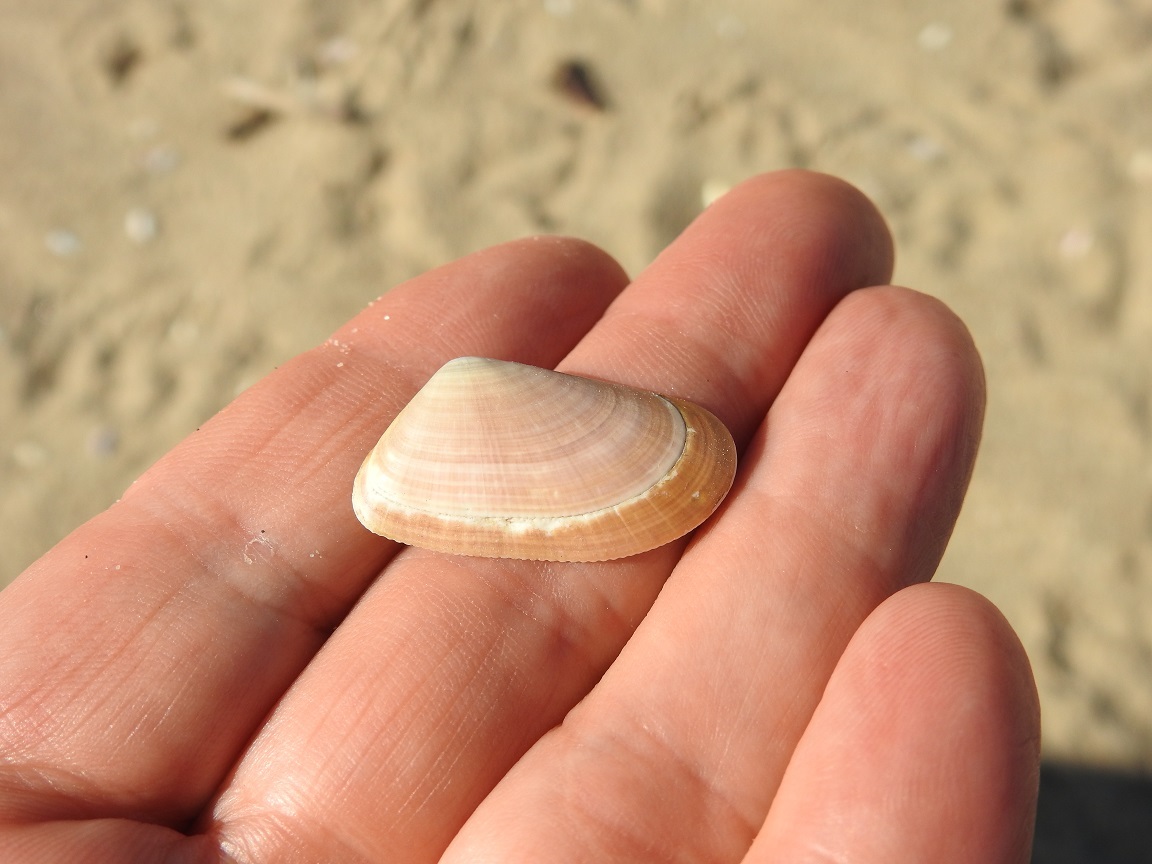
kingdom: Animalia
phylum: Mollusca
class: Bivalvia
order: Cardiida
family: Donacidae
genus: Donax
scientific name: Donax trunculus
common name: Truncate donax
